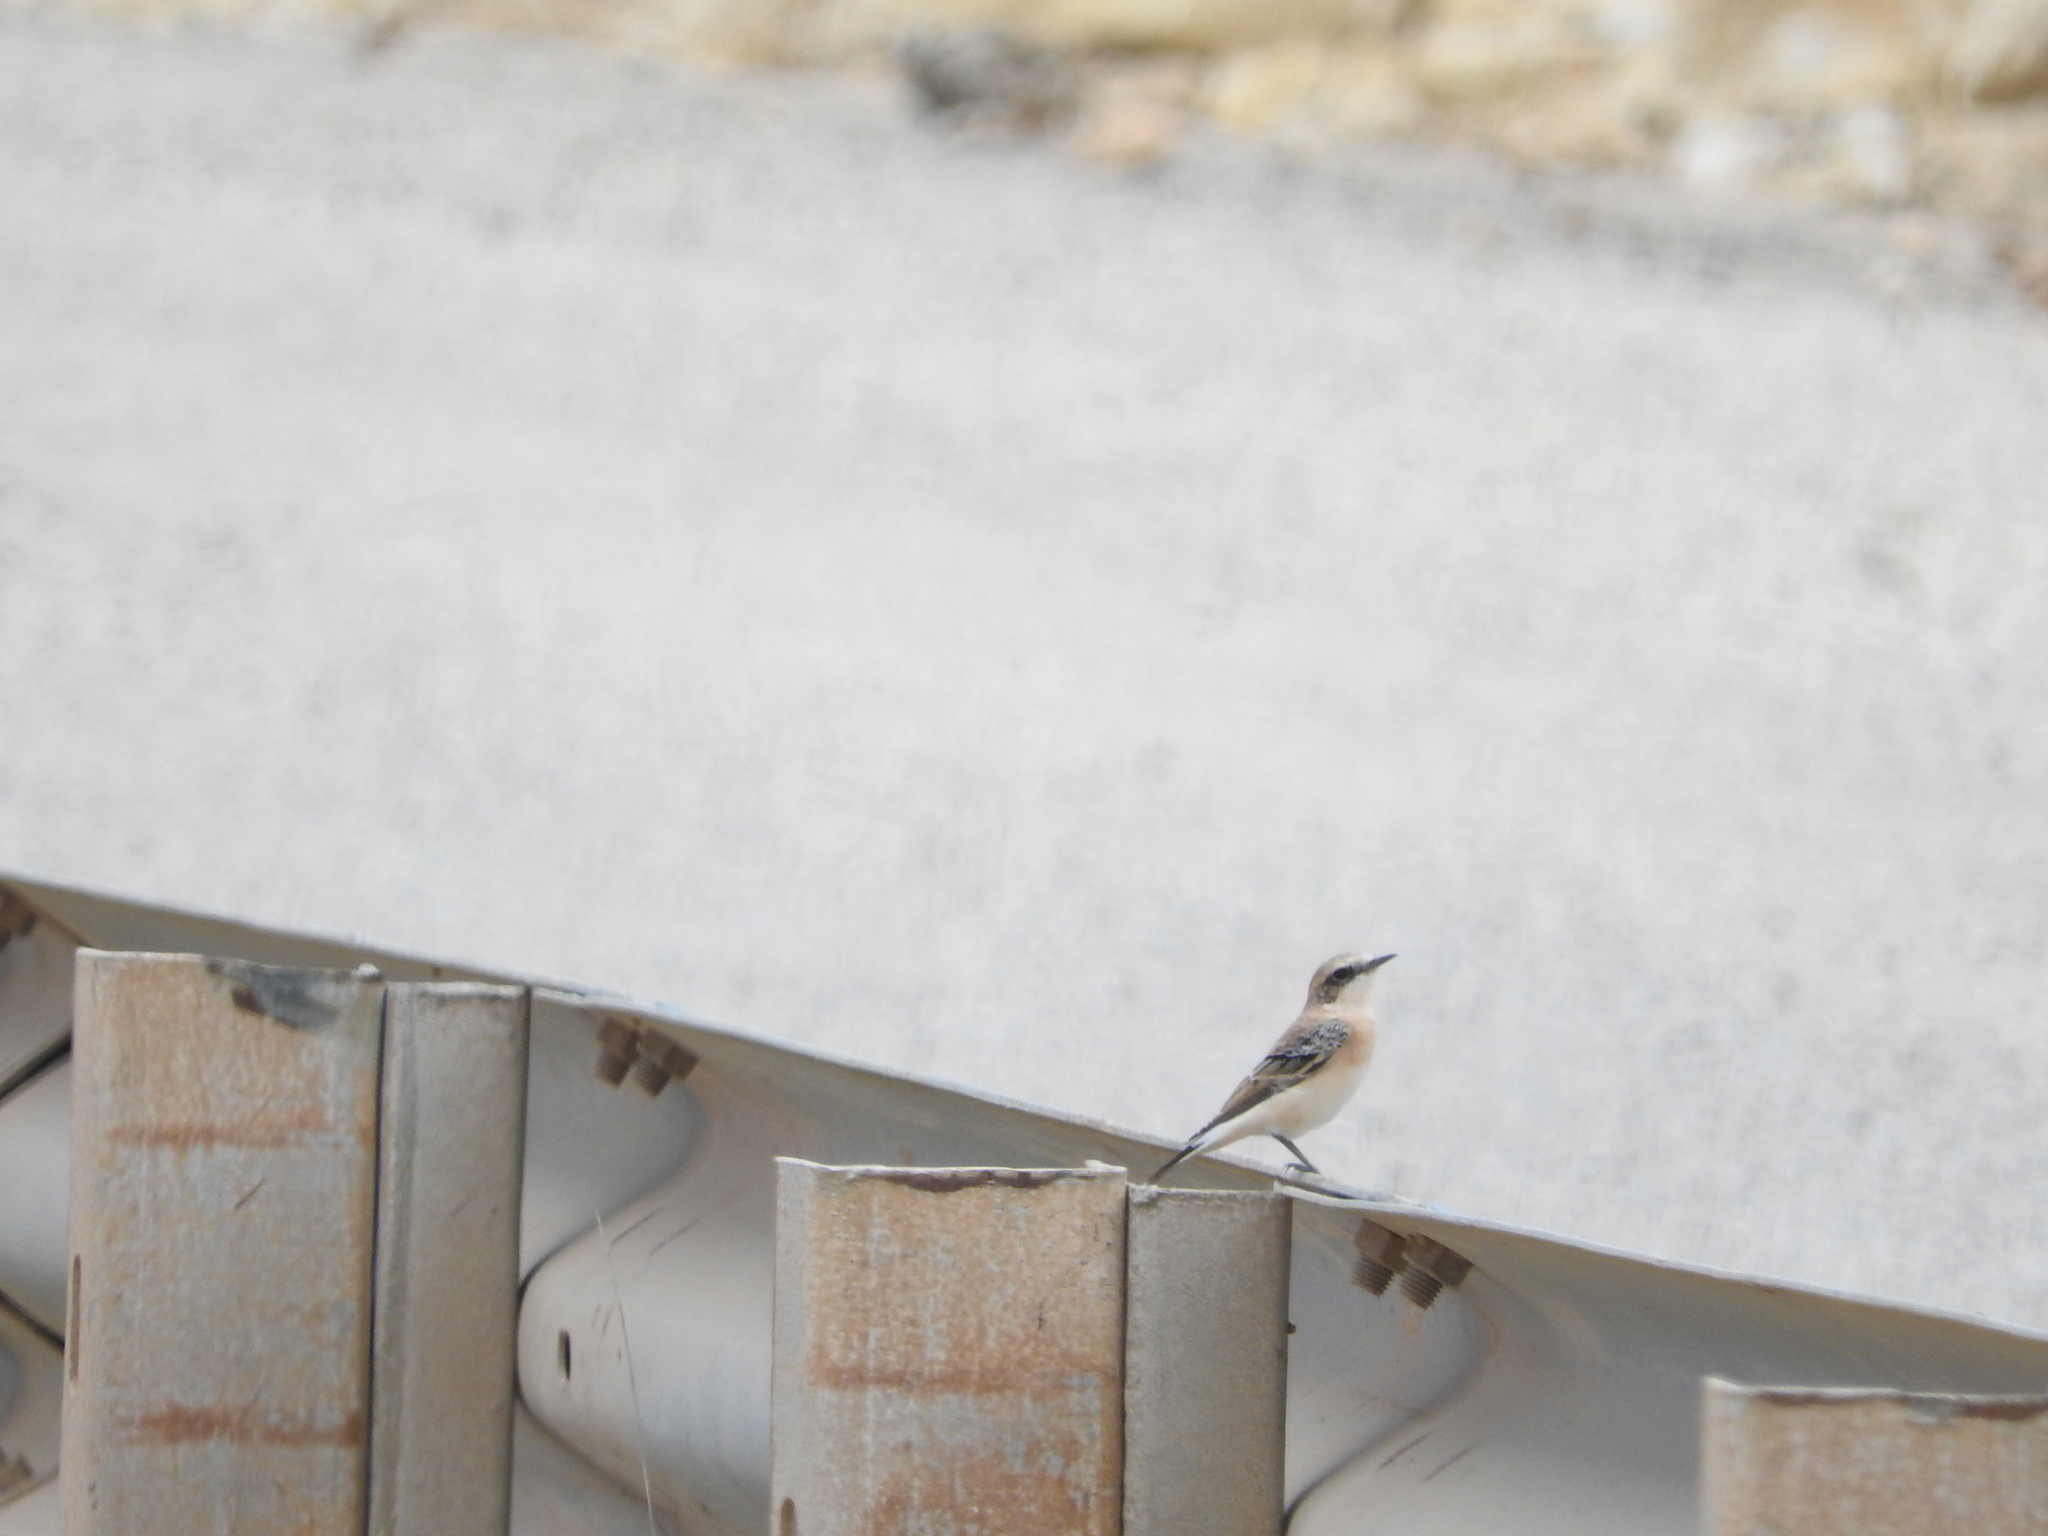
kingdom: Animalia
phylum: Chordata
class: Aves
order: Passeriformes
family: Muscicapidae
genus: Oenanthe
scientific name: Oenanthe hispanica
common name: Black-eared wheatear
